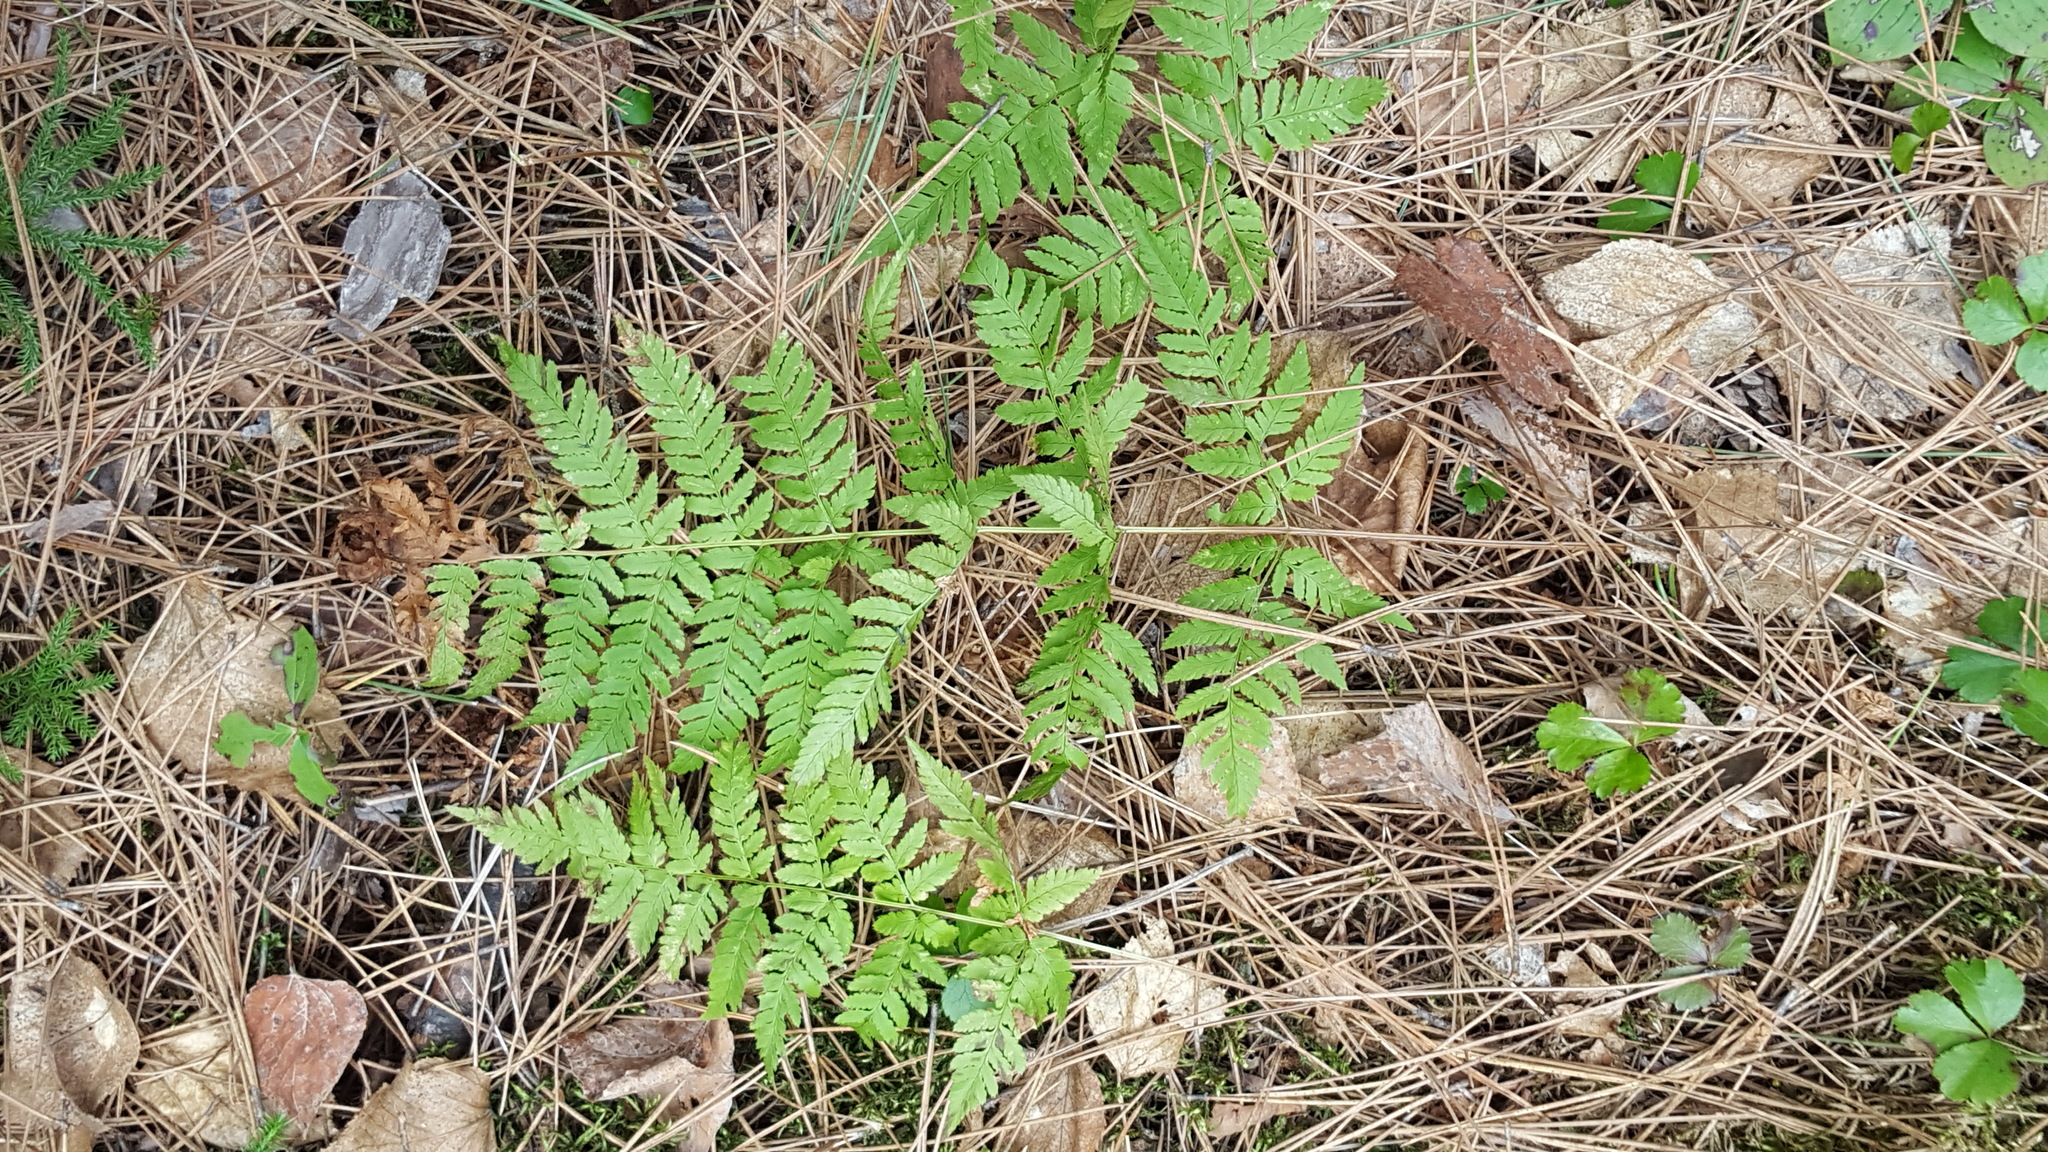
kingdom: Plantae
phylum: Tracheophyta
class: Polypodiopsida
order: Polypodiales
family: Dryopteridaceae
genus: Dryopteris
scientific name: Dryopteris carthusiana
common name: Narrow buckler-fern
